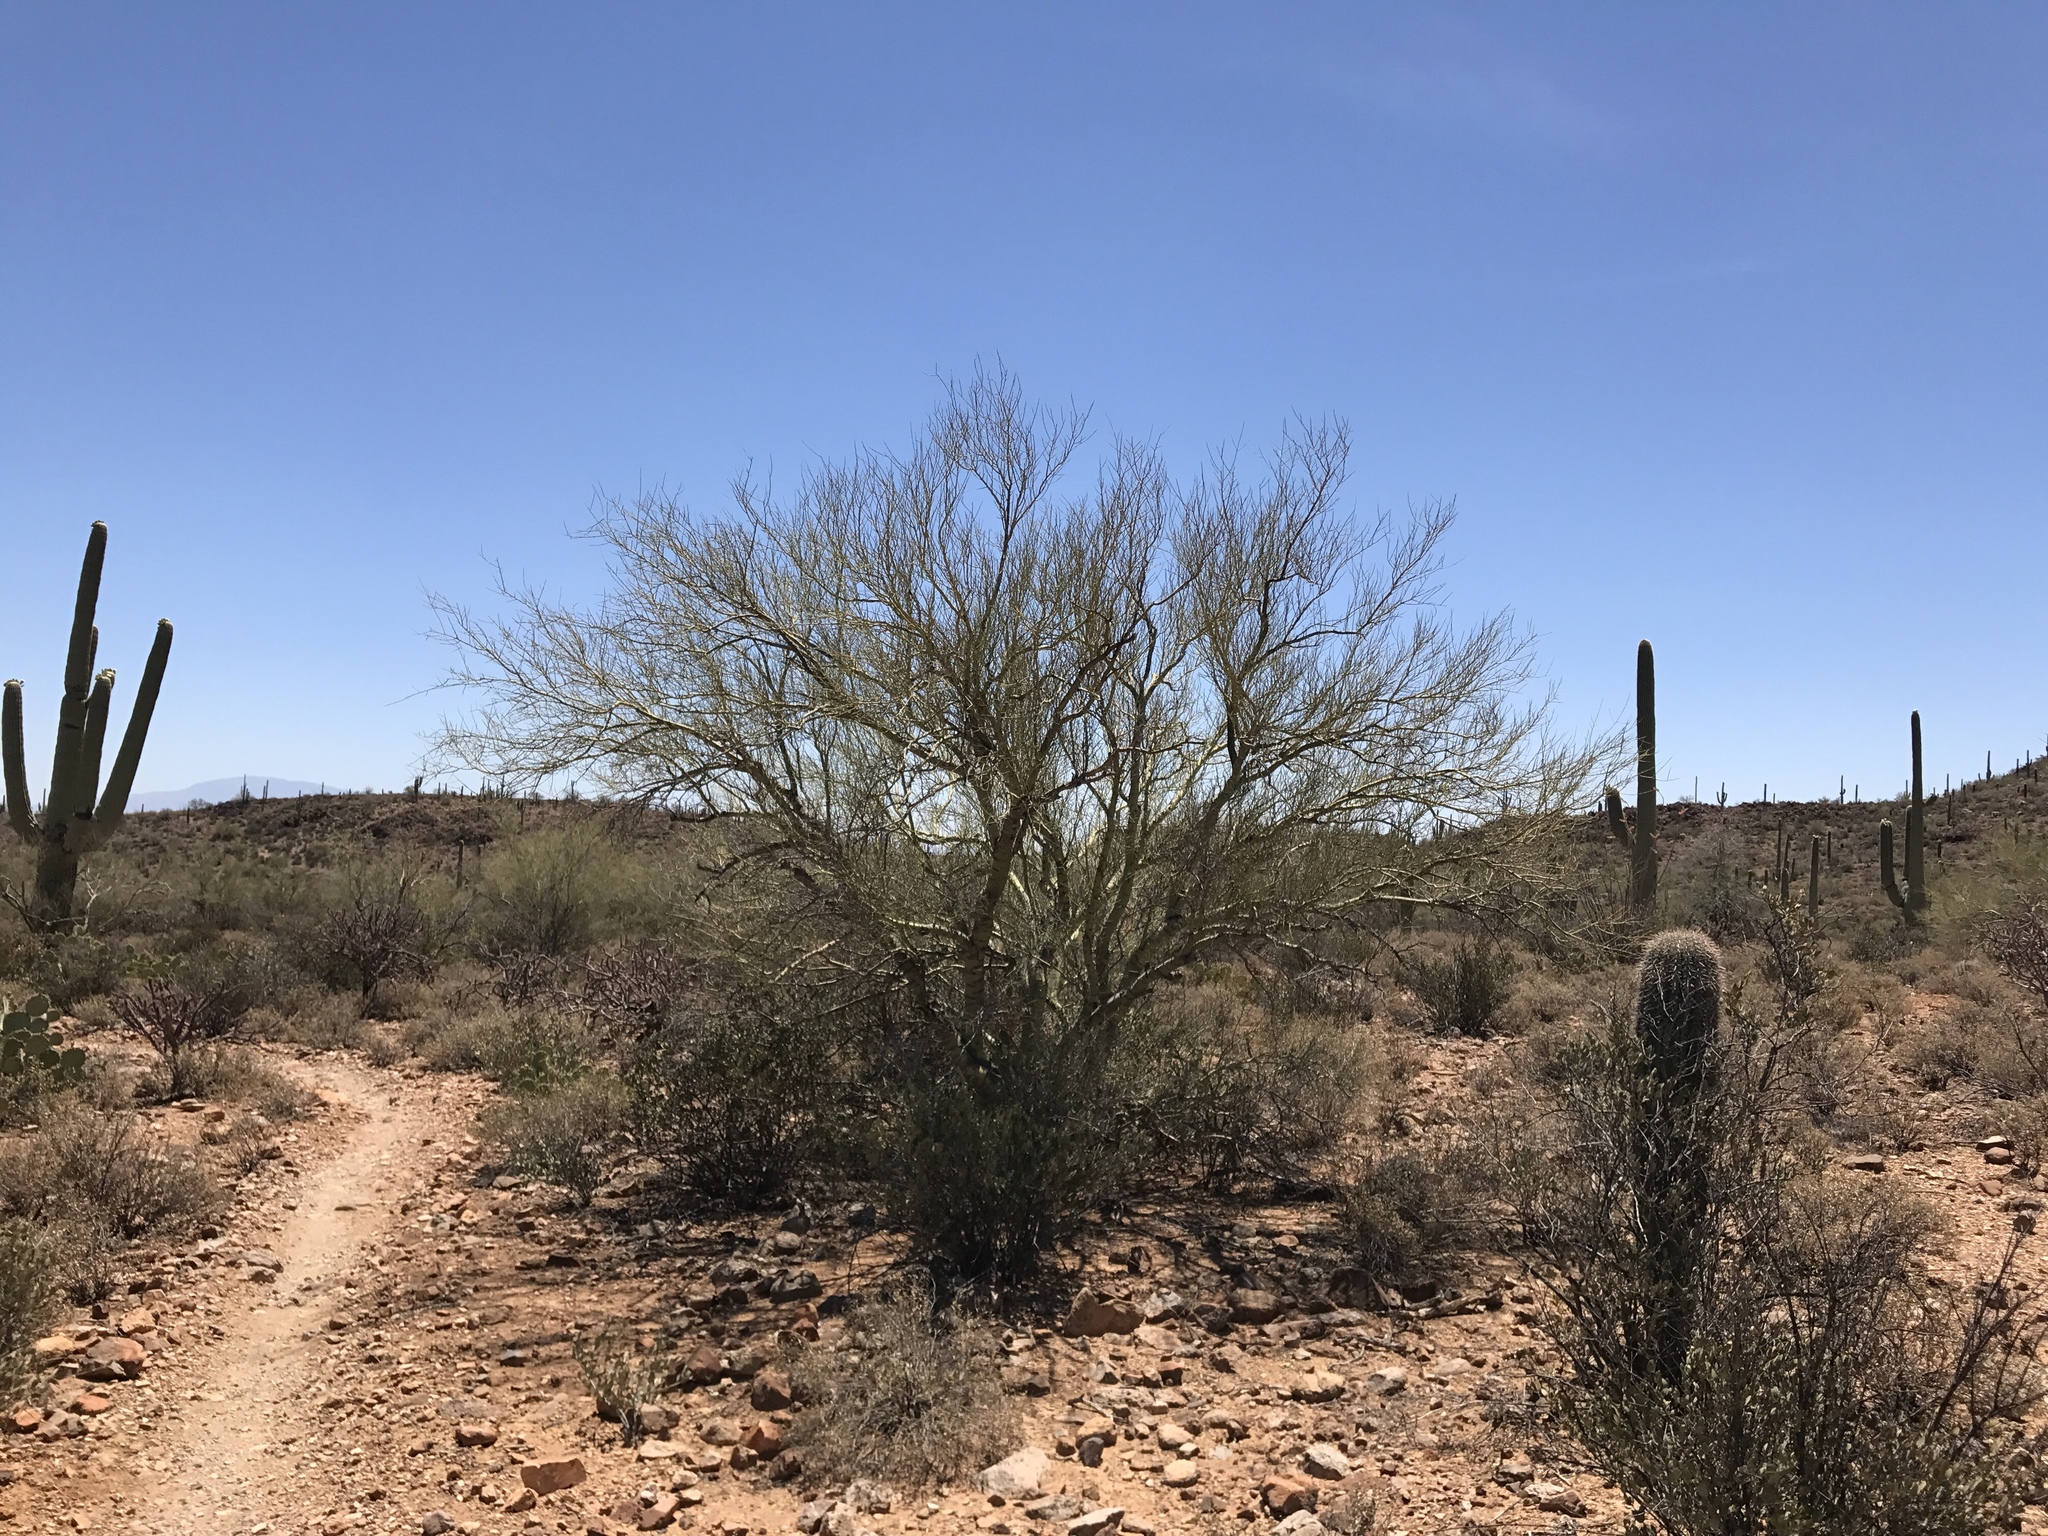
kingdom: Plantae
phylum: Tracheophyta
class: Magnoliopsida
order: Fabales
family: Fabaceae
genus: Parkinsonia
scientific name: Parkinsonia microphylla
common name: Yellow paloverde
